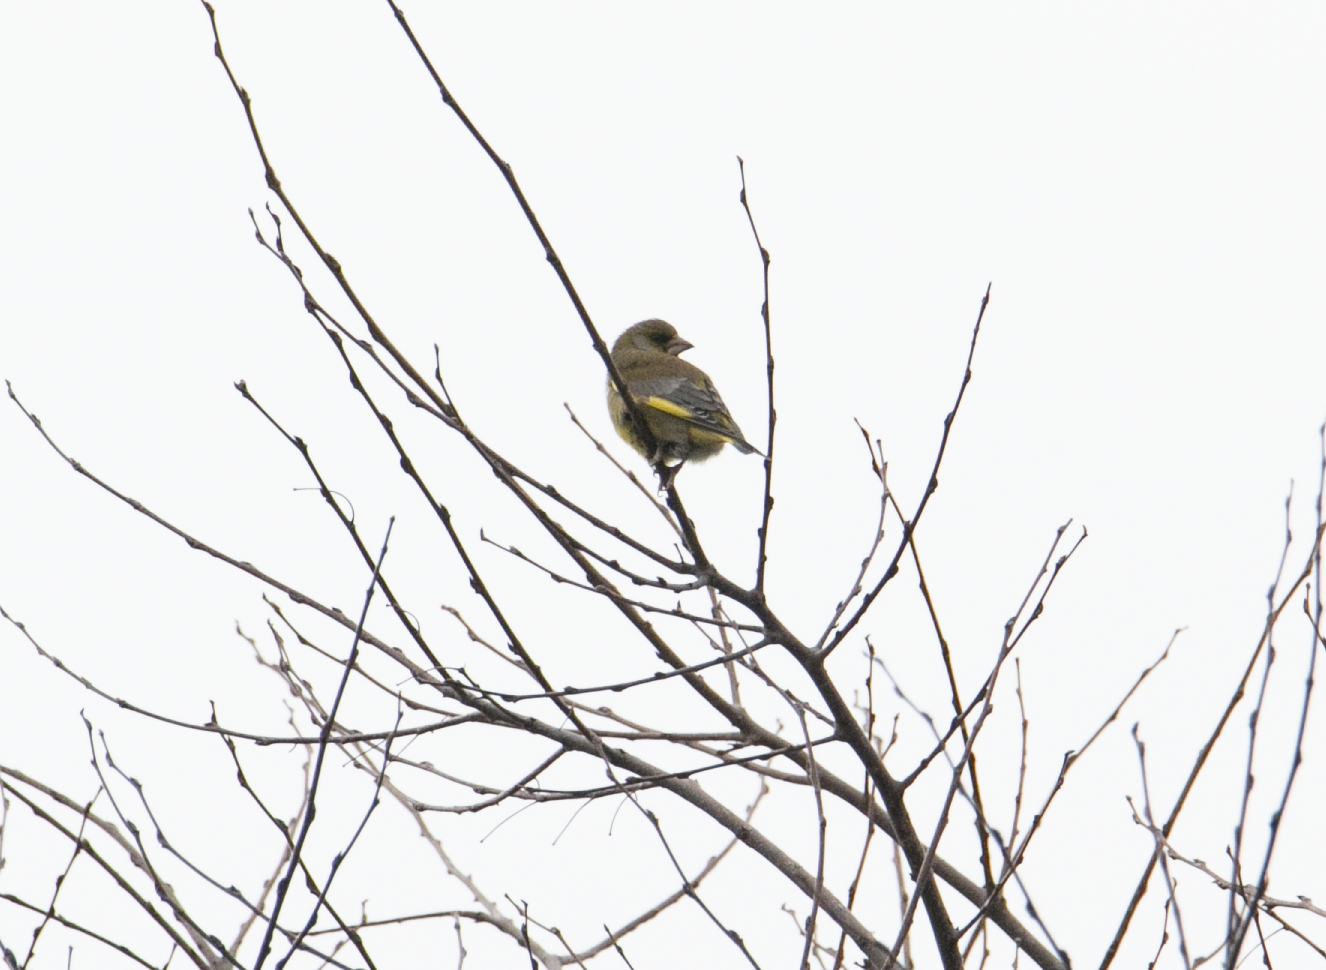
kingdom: Plantae
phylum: Tracheophyta
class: Liliopsida
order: Poales
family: Poaceae
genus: Chloris
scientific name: Chloris chloris
